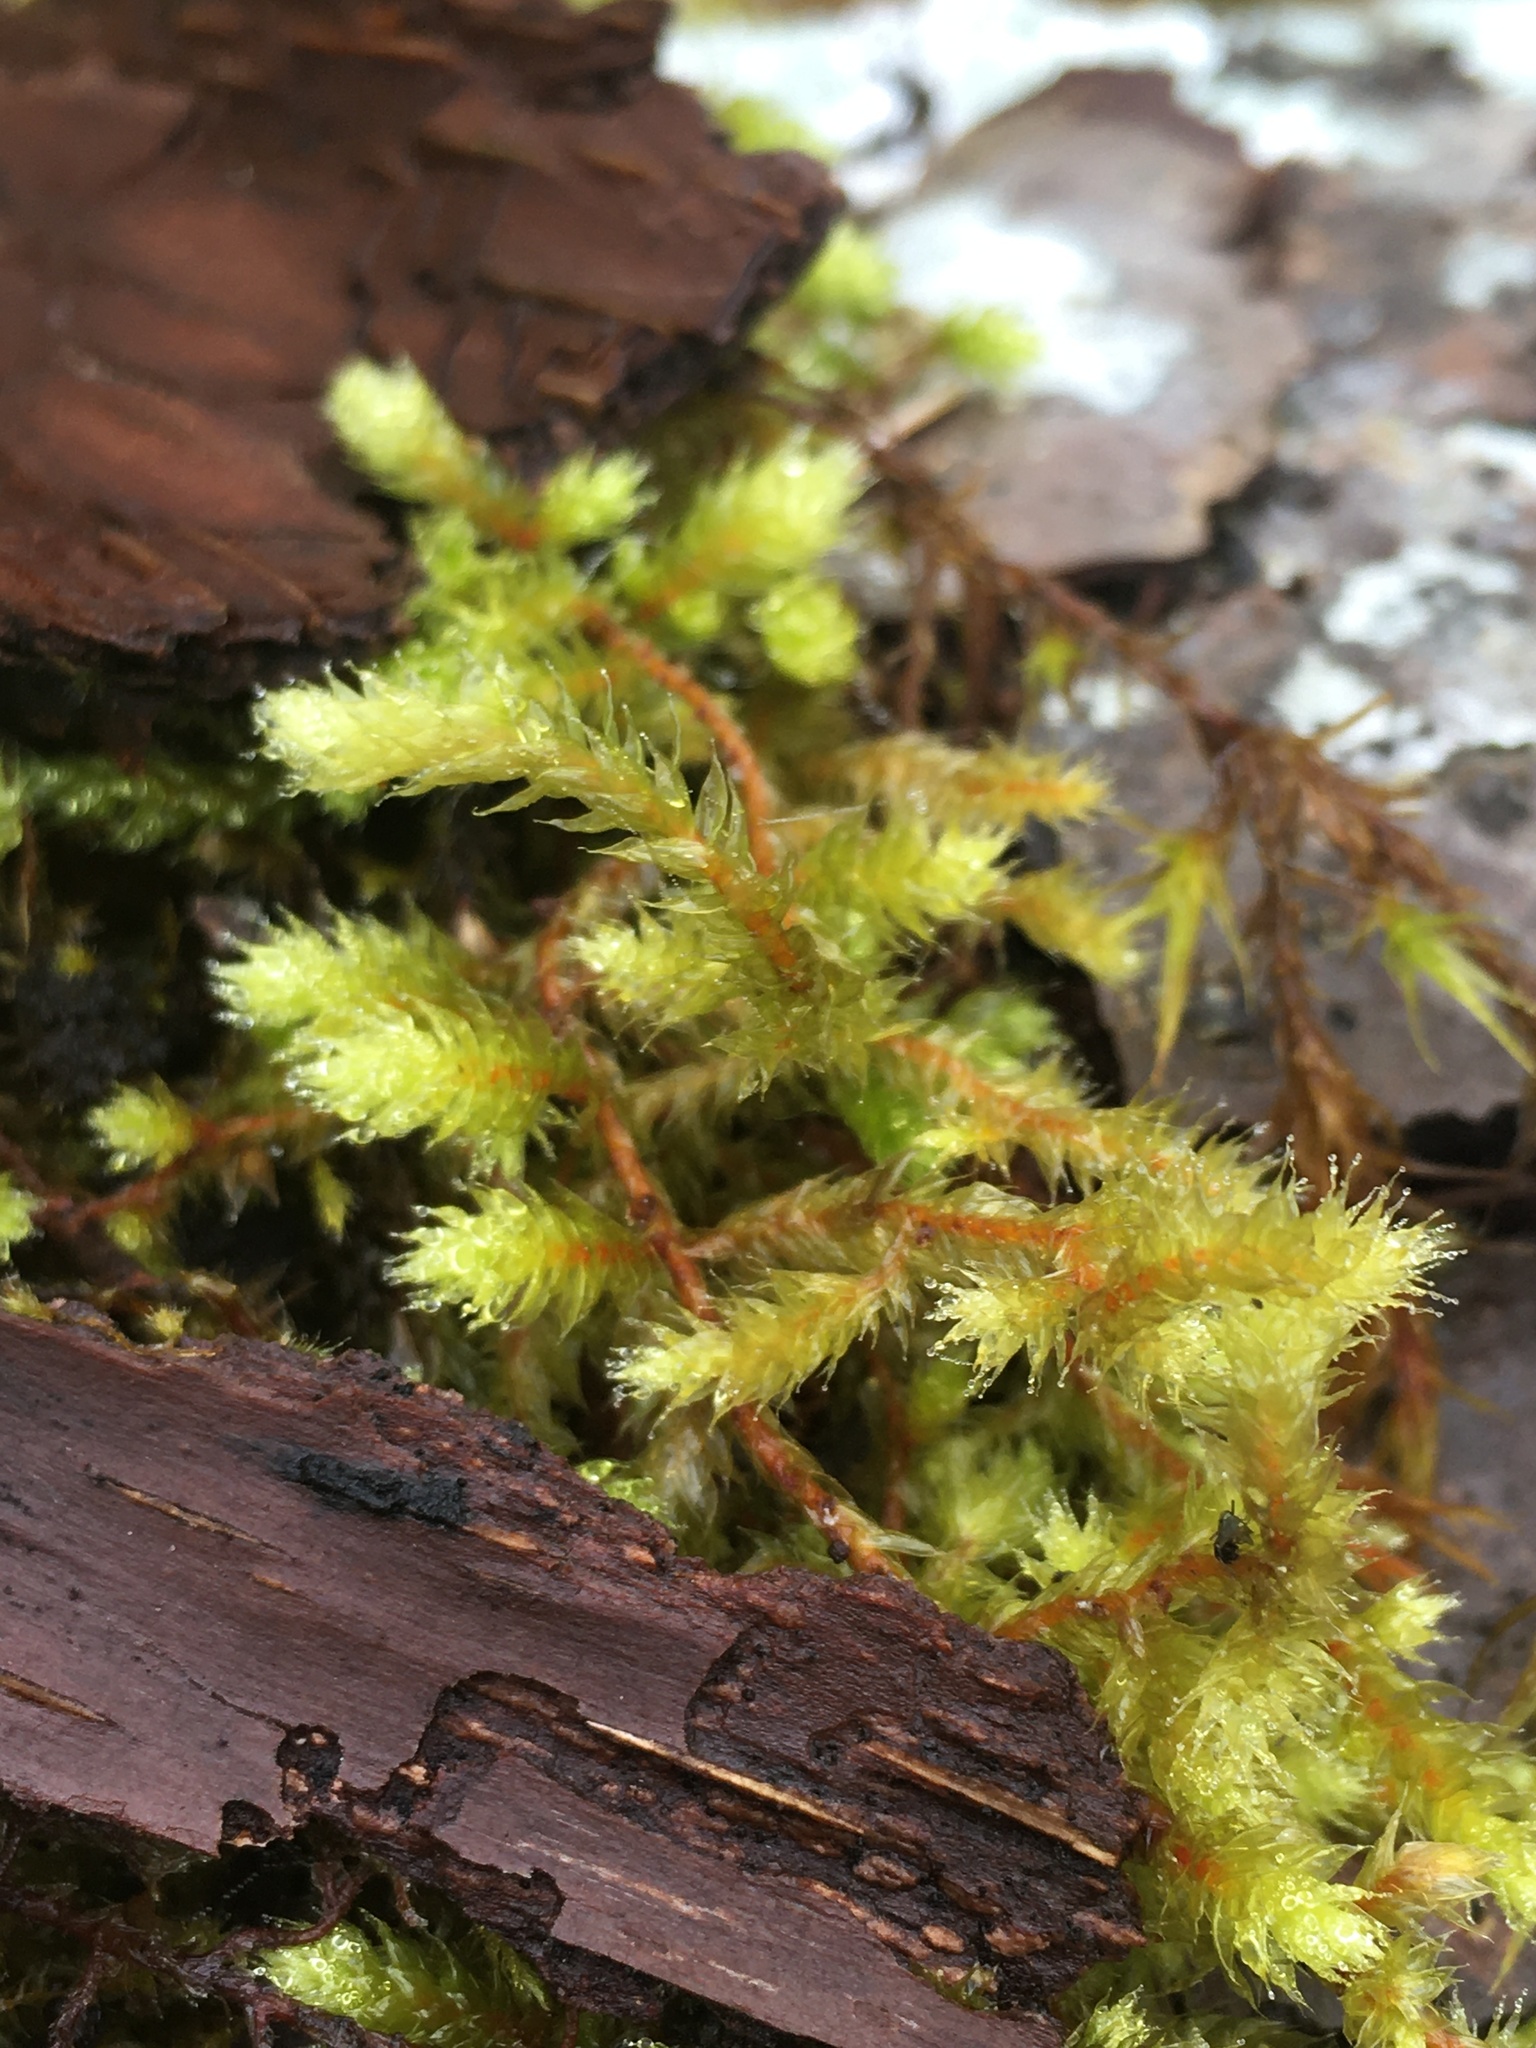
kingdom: Plantae
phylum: Bryophyta
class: Bryopsida
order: Hypnales
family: Antitrichiaceae
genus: Antitrichia
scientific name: Antitrichia curtipendula
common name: Pendulous wing-moss
